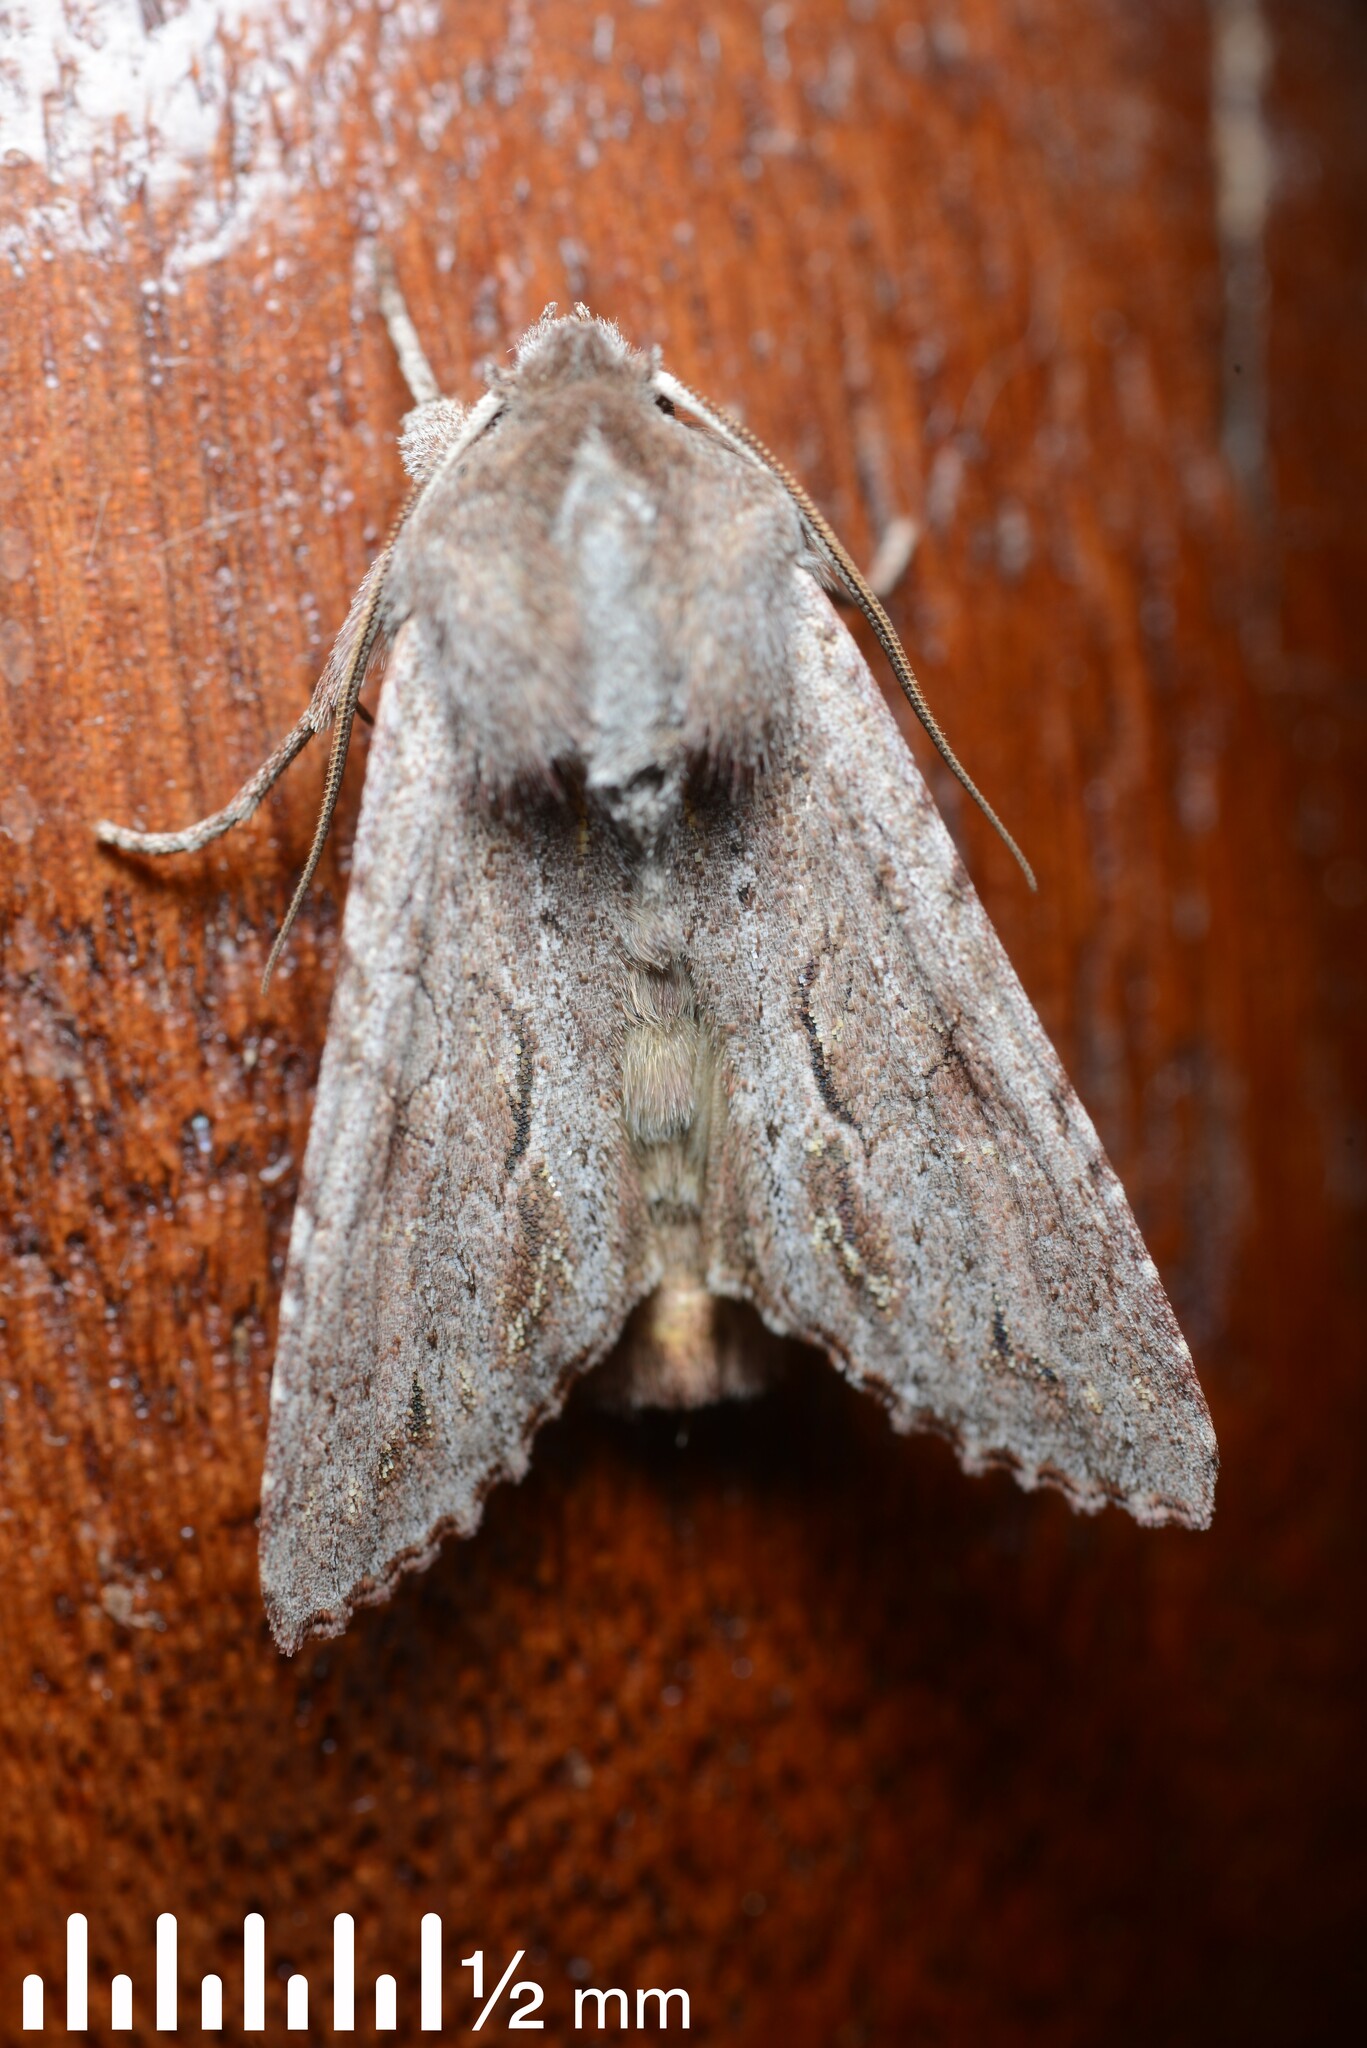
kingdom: Animalia
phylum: Arthropoda
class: Insecta
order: Lepidoptera
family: Noctuidae
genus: Ichneutica
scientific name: Ichneutica
